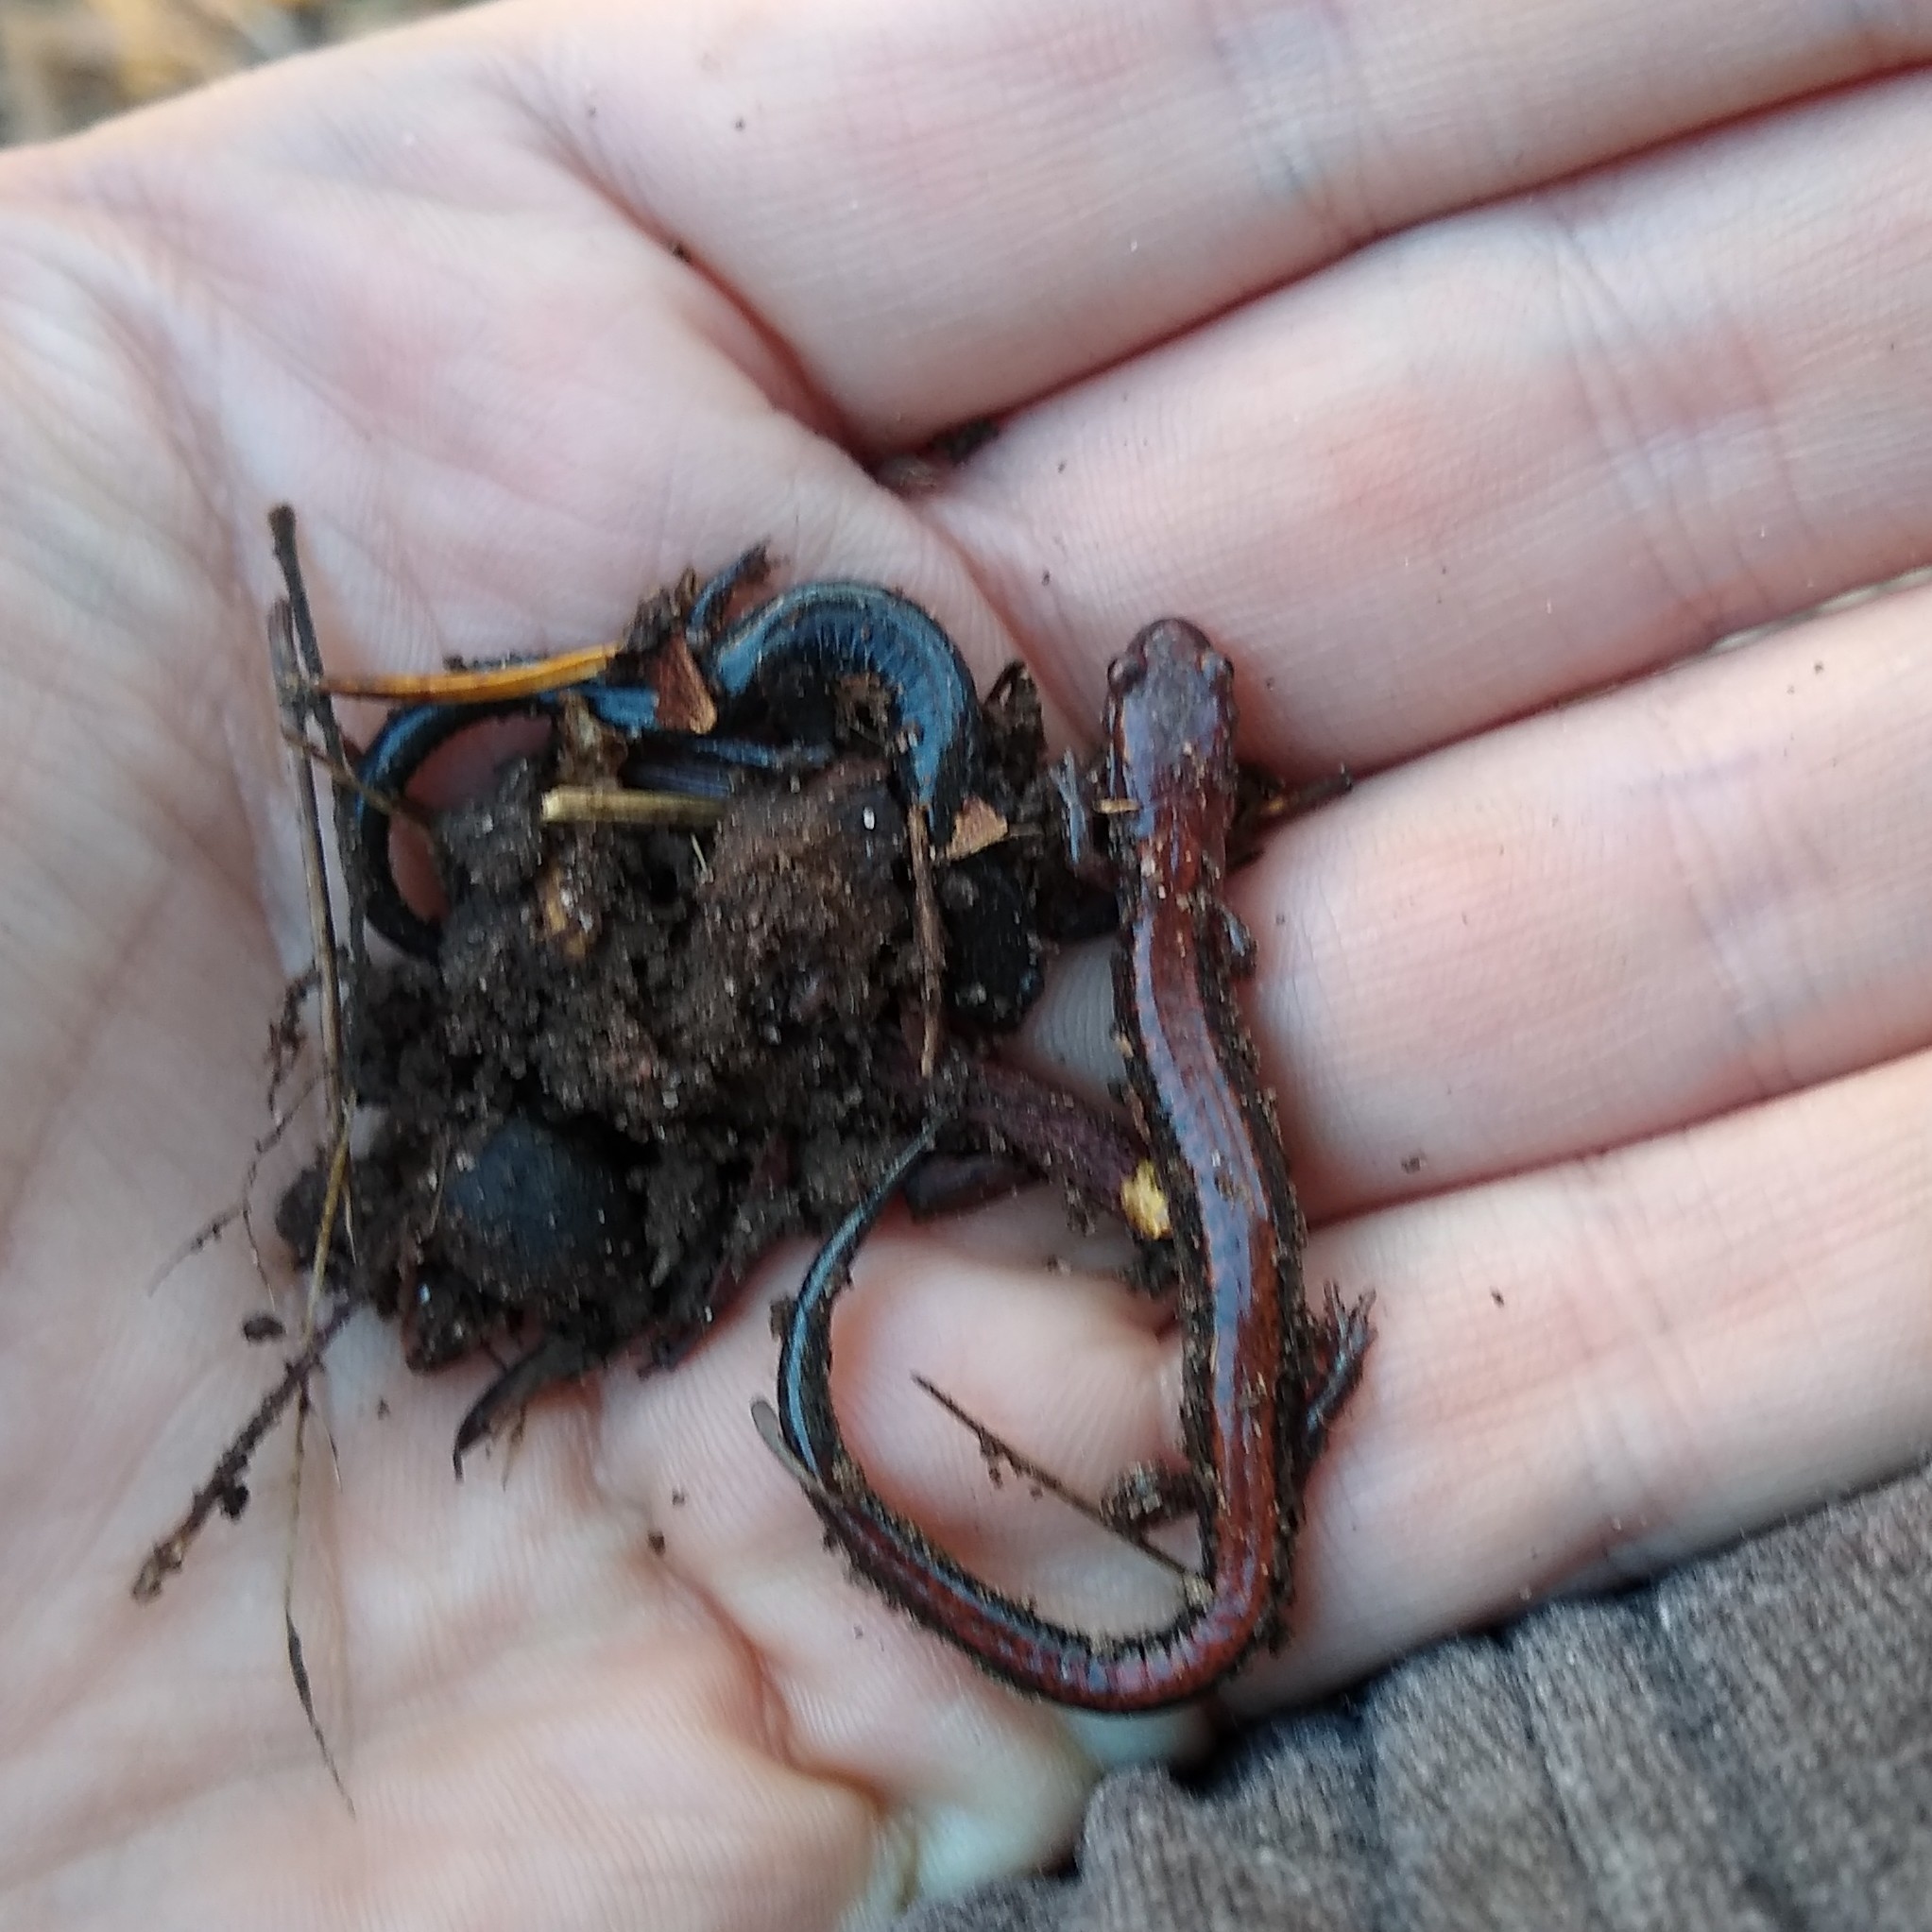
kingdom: Animalia
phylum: Chordata
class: Amphibia
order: Caudata
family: Plethodontidae
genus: Plethodon
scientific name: Plethodon cinereus
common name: Redback salamander
